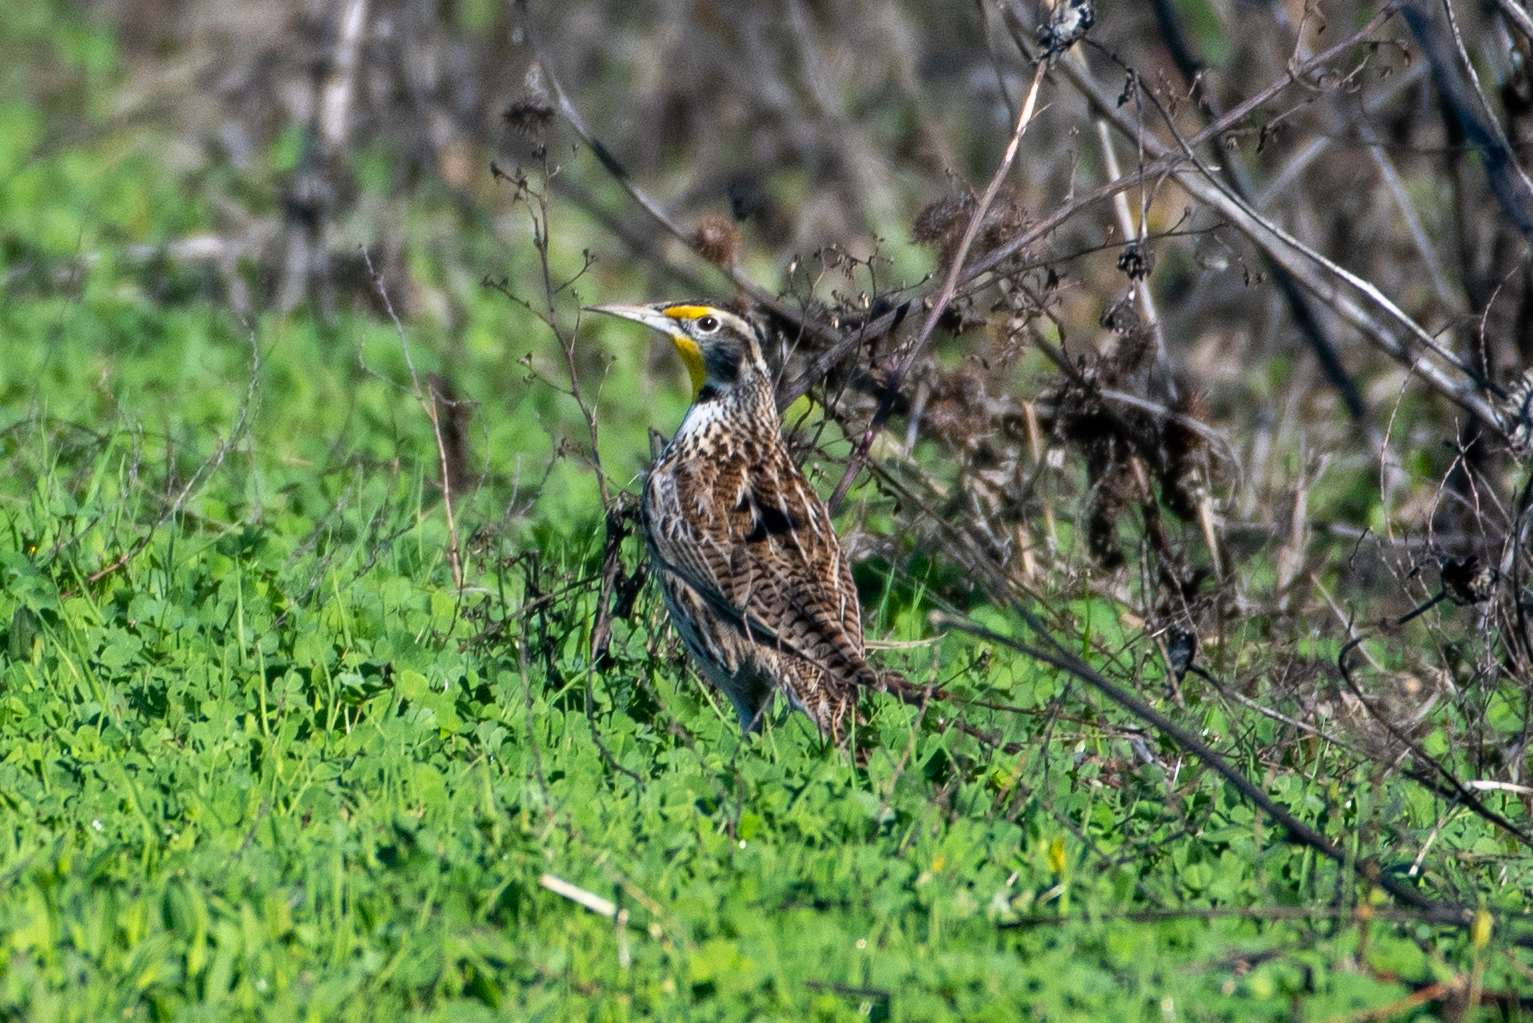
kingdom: Animalia
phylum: Chordata
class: Aves
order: Passeriformes
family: Icteridae
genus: Sturnella
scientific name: Sturnella neglecta
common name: Western meadowlark
